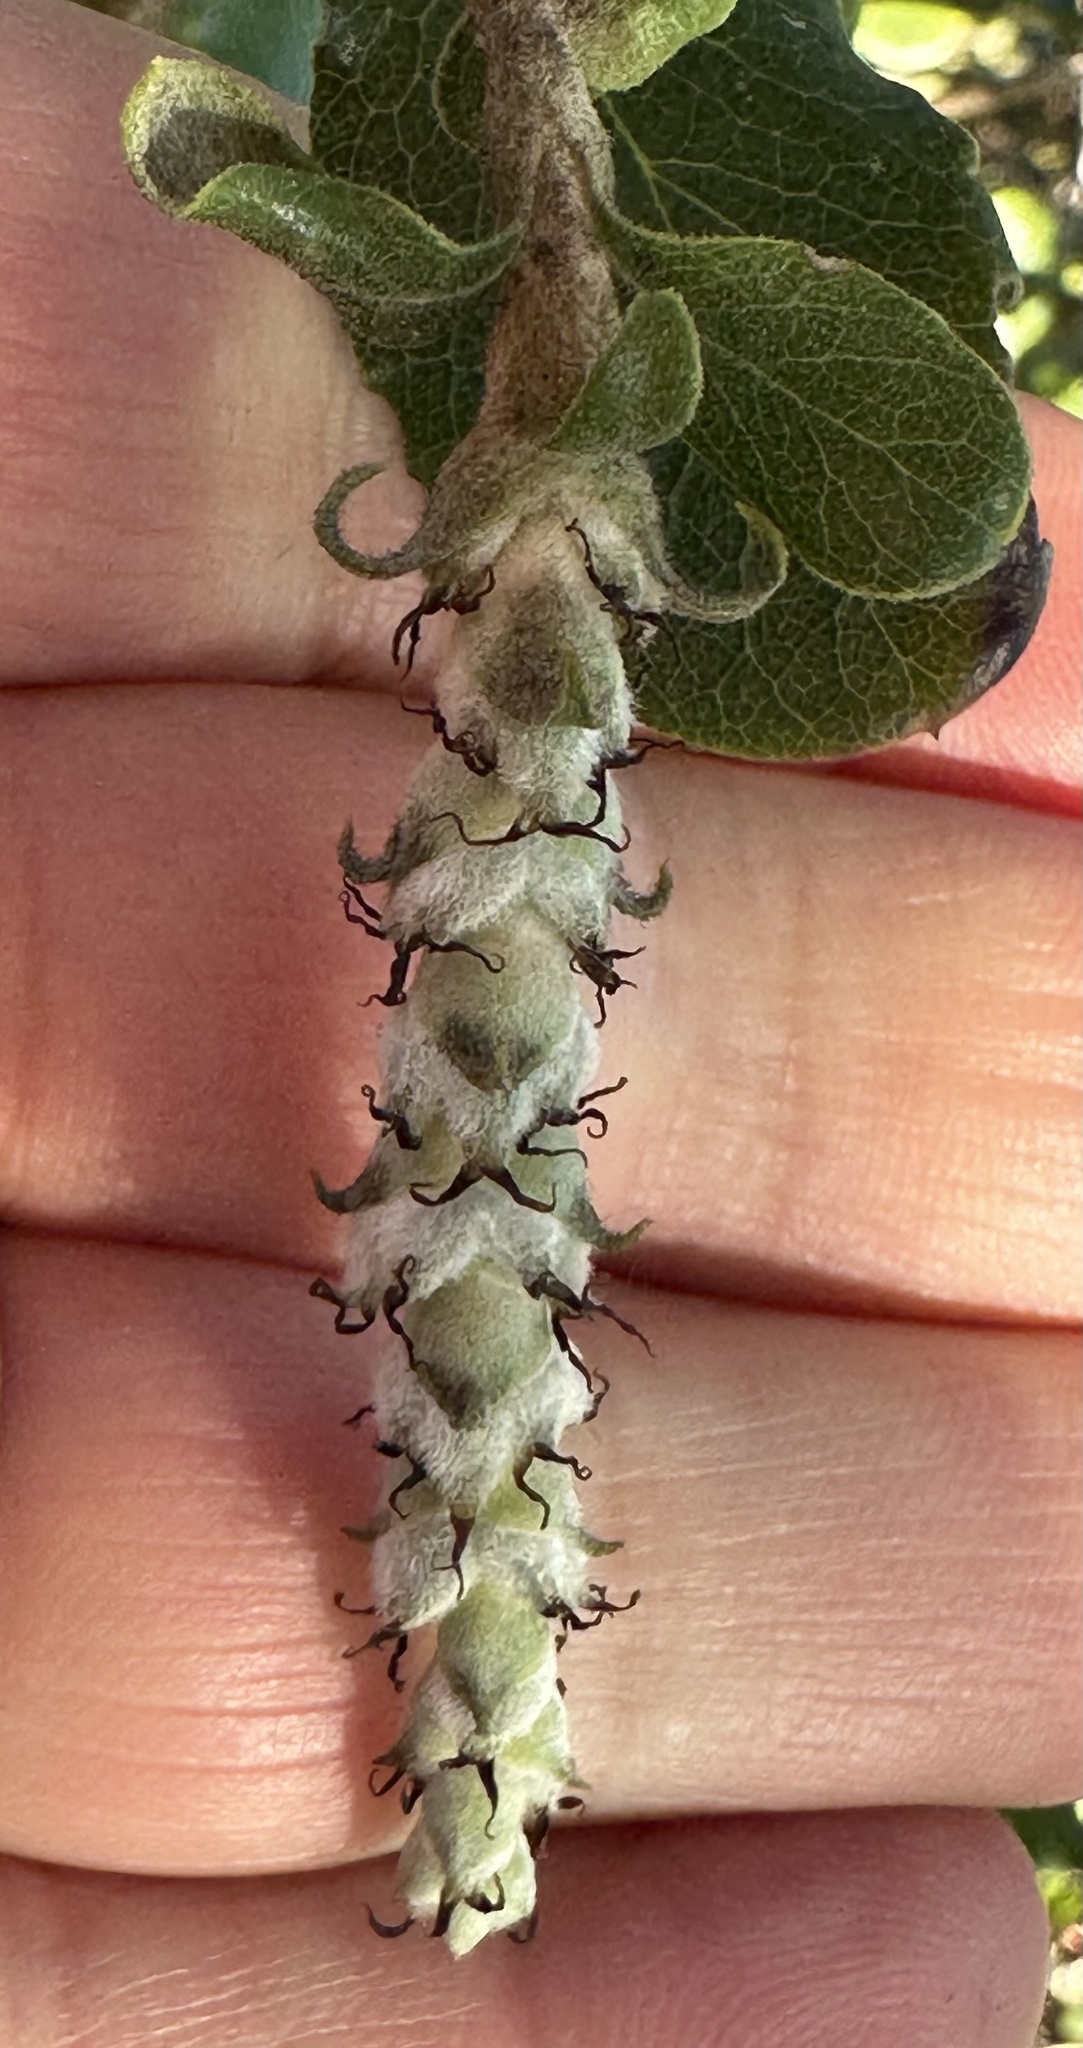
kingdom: Plantae
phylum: Tracheophyta
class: Magnoliopsida
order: Garryales
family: Garryaceae
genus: Garrya
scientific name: Garrya elliptica
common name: Silk-tassel
